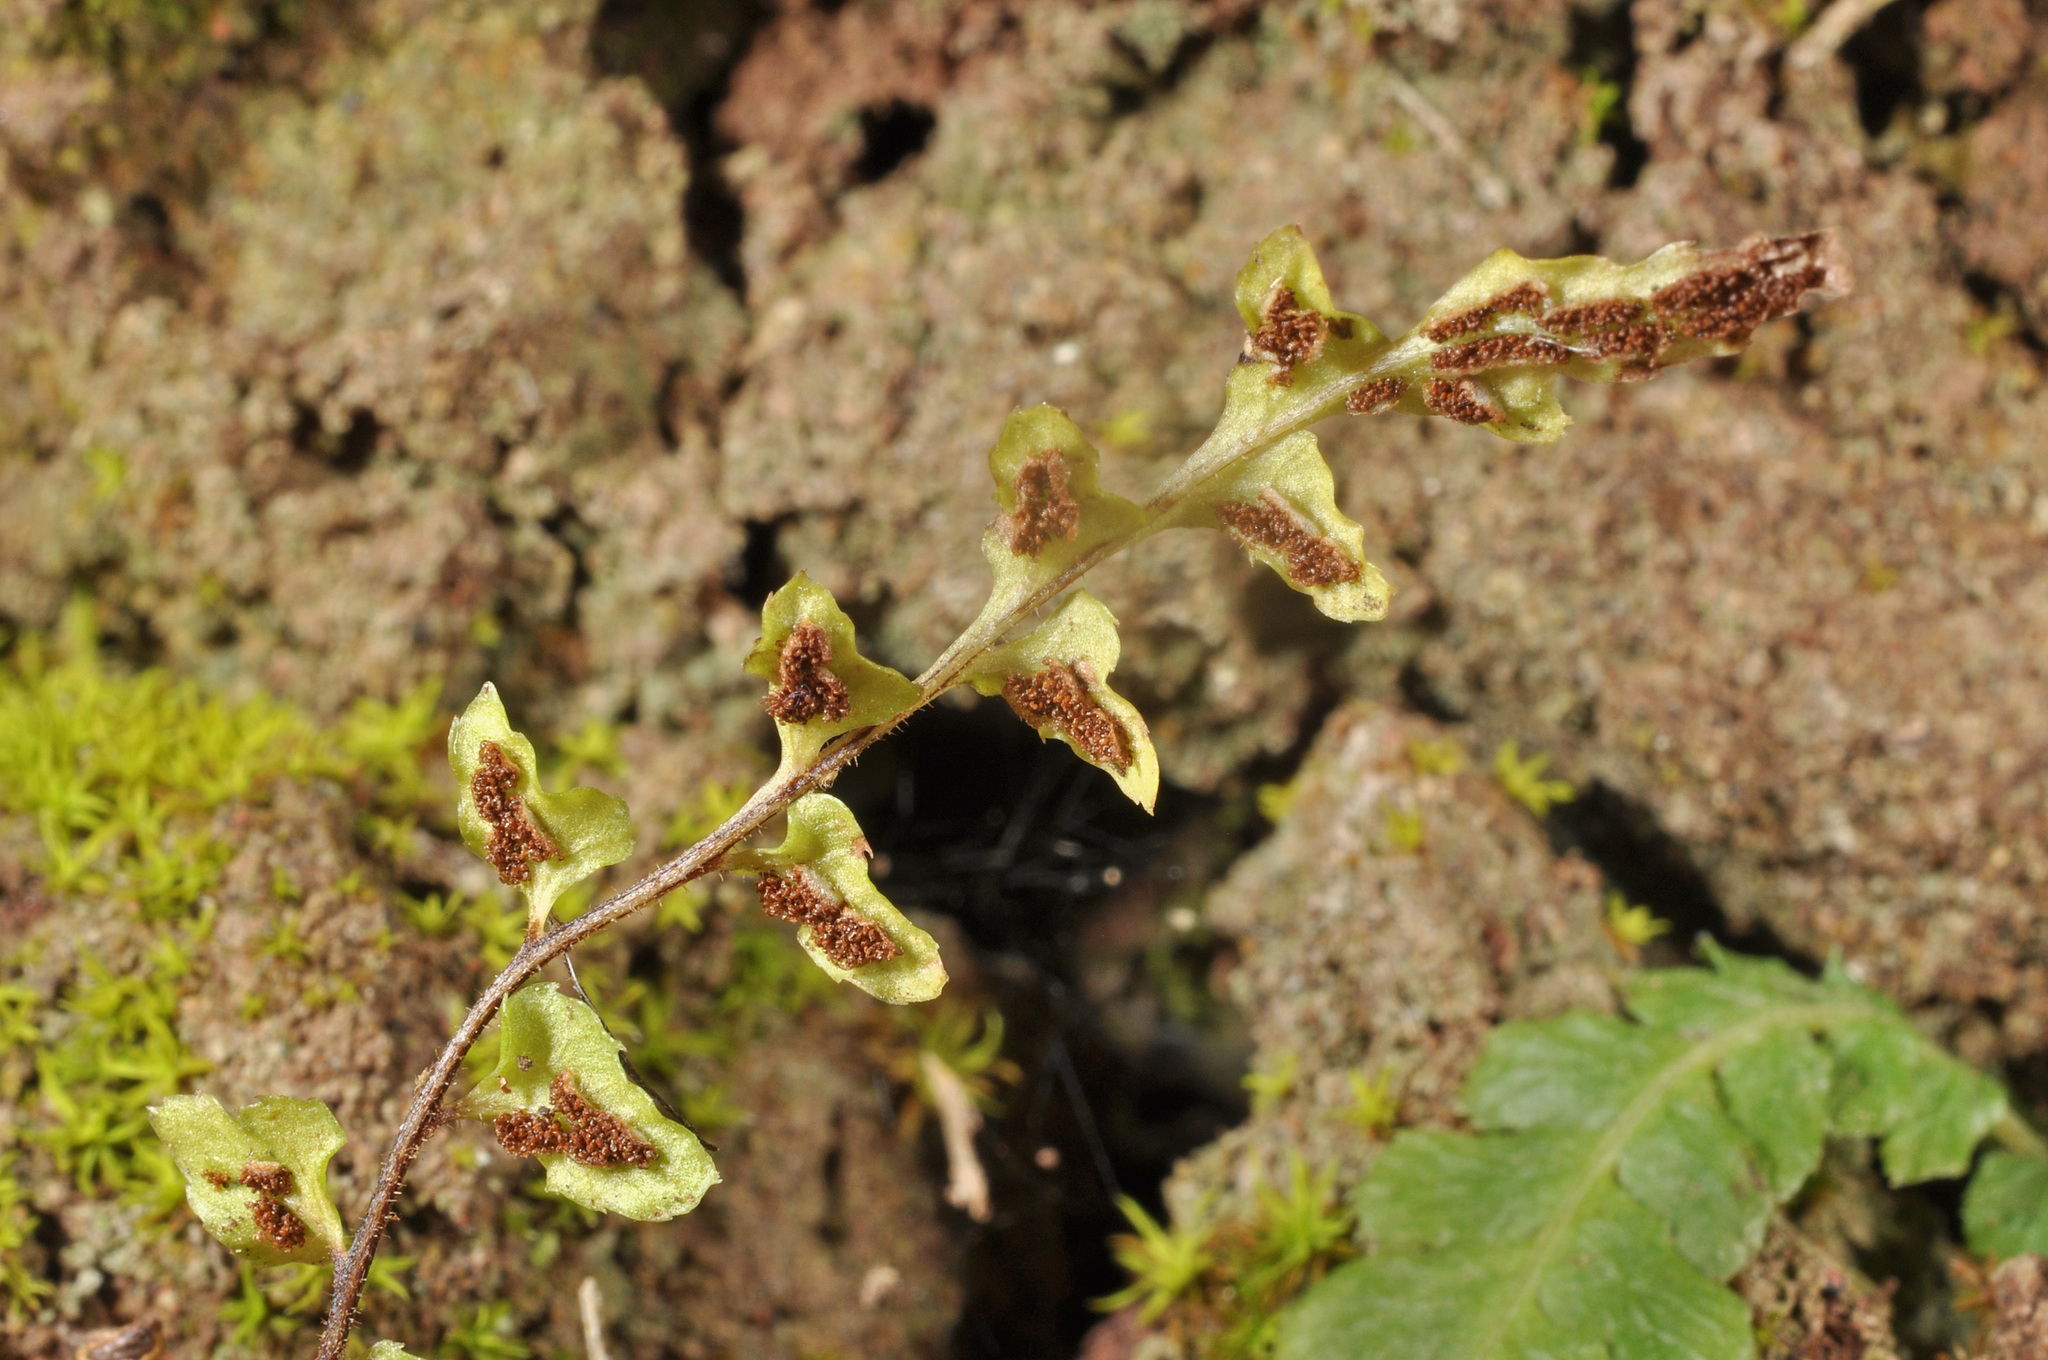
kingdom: Plantae
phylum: Tracheophyta
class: Polypodiopsida
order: Polypodiales
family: Blechnaceae
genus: Doodia
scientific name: Doodia mollis
